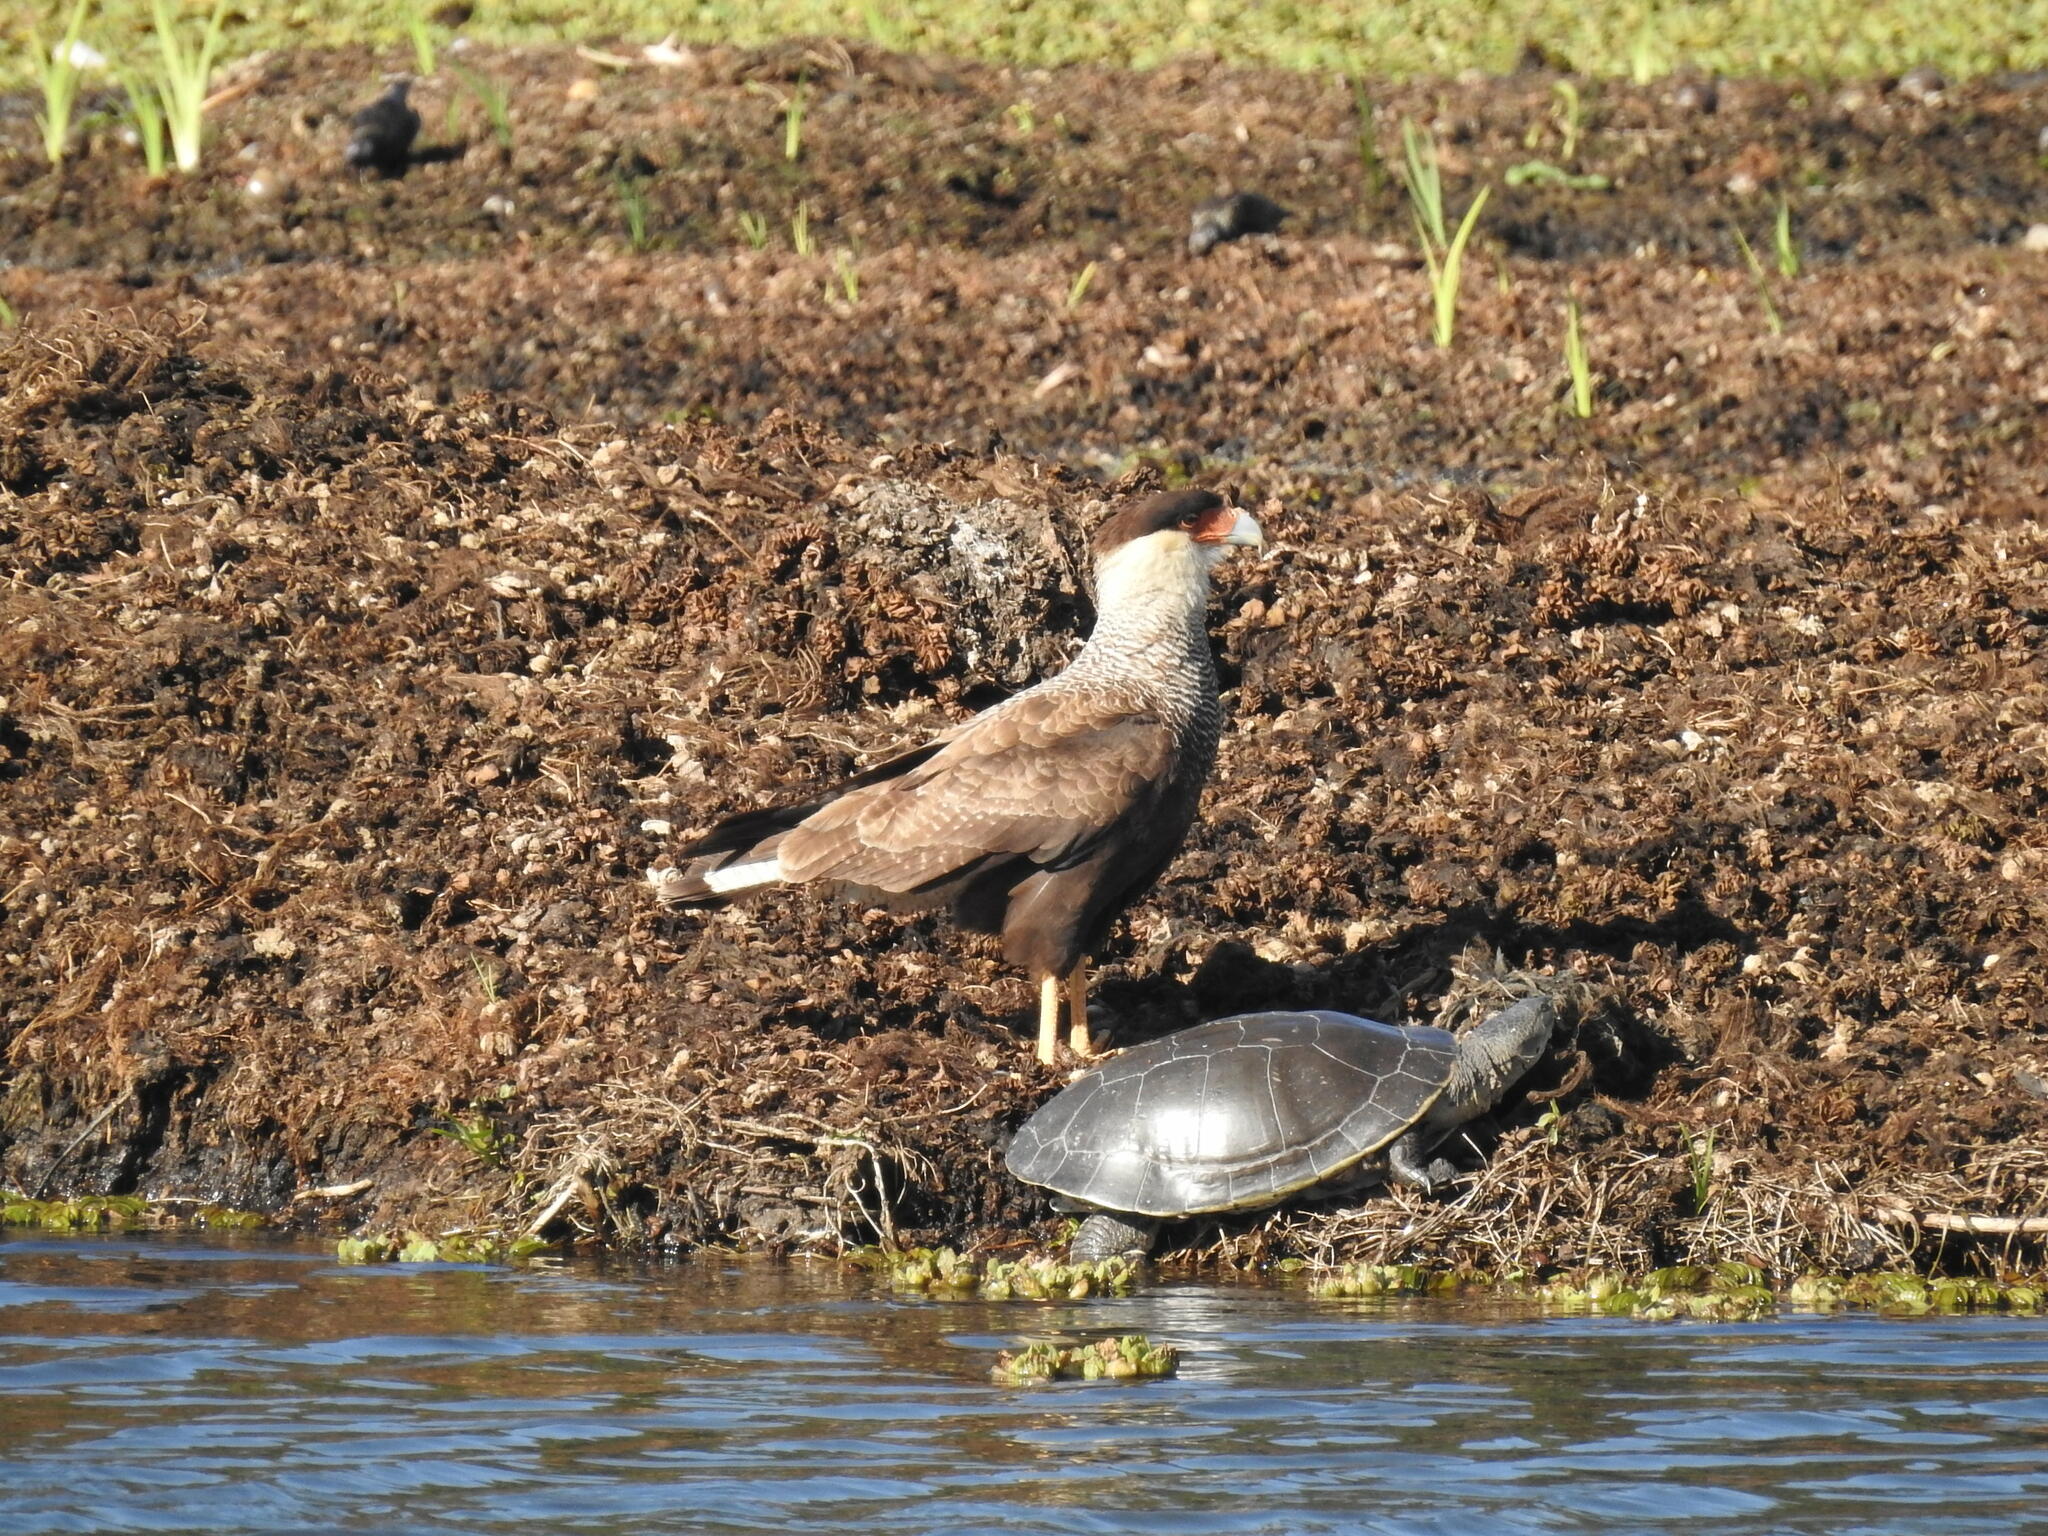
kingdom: Animalia
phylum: Chordata
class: Aves
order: Falconiformes
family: Falconidae
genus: Caracara
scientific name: Caracara plancus
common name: Southern caracara
